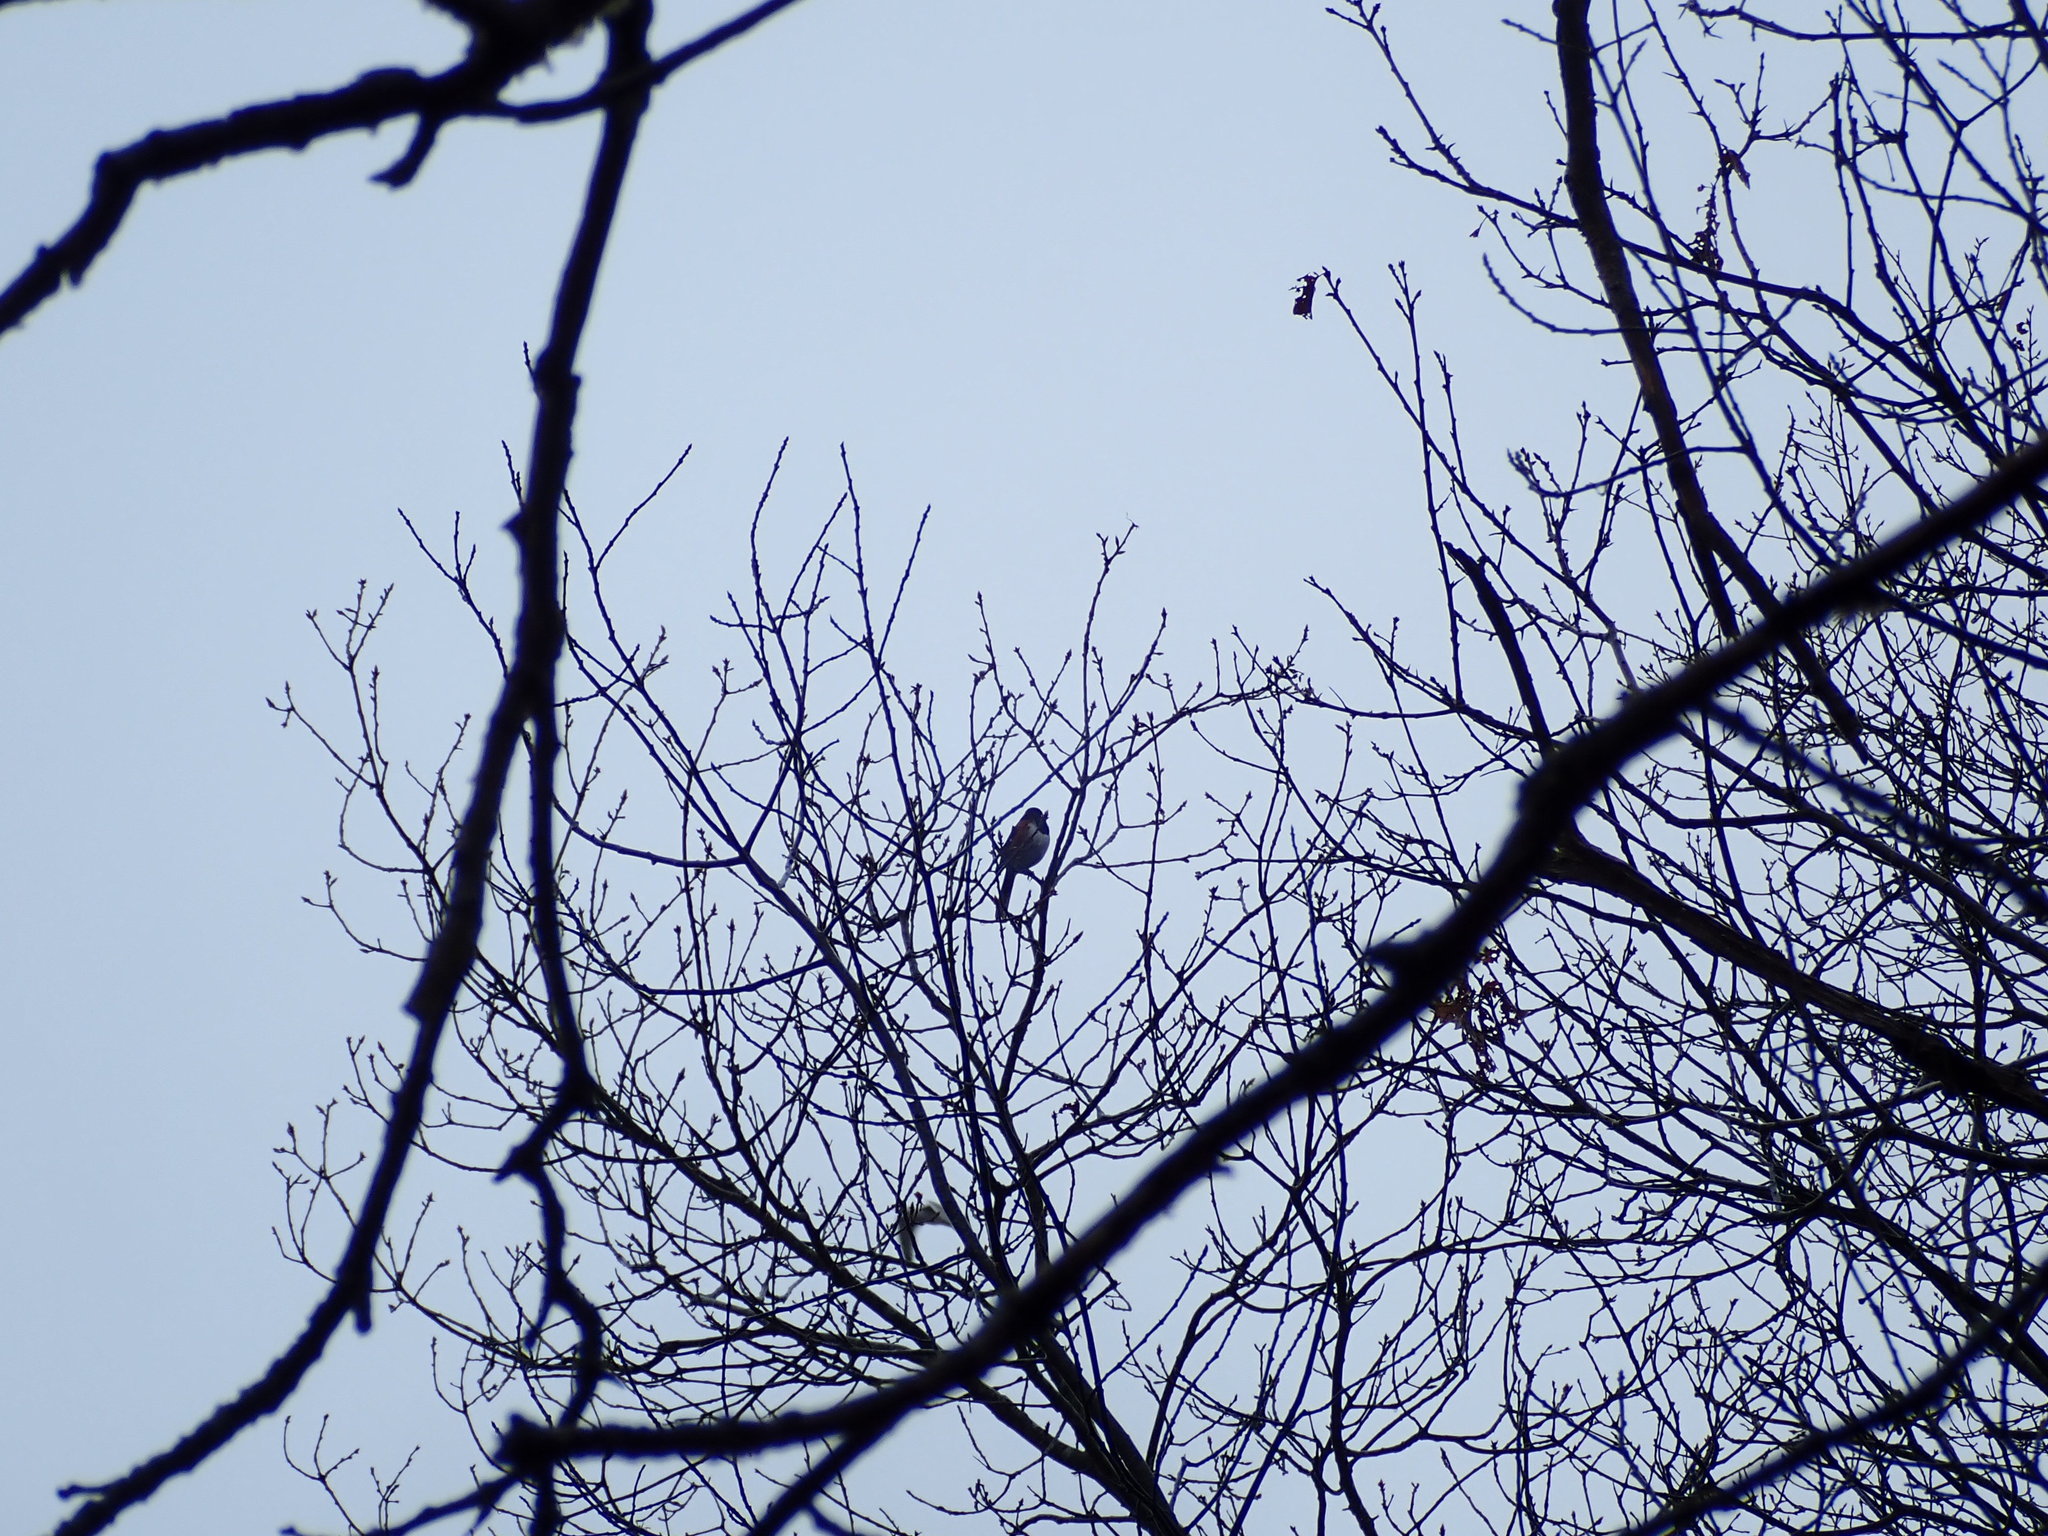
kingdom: Animalia
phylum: Chordata
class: Aves
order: Passeriformes
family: Passerellidae
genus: Pipilo
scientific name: Pipilo erythrophthalmus
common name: Eastern towhee
